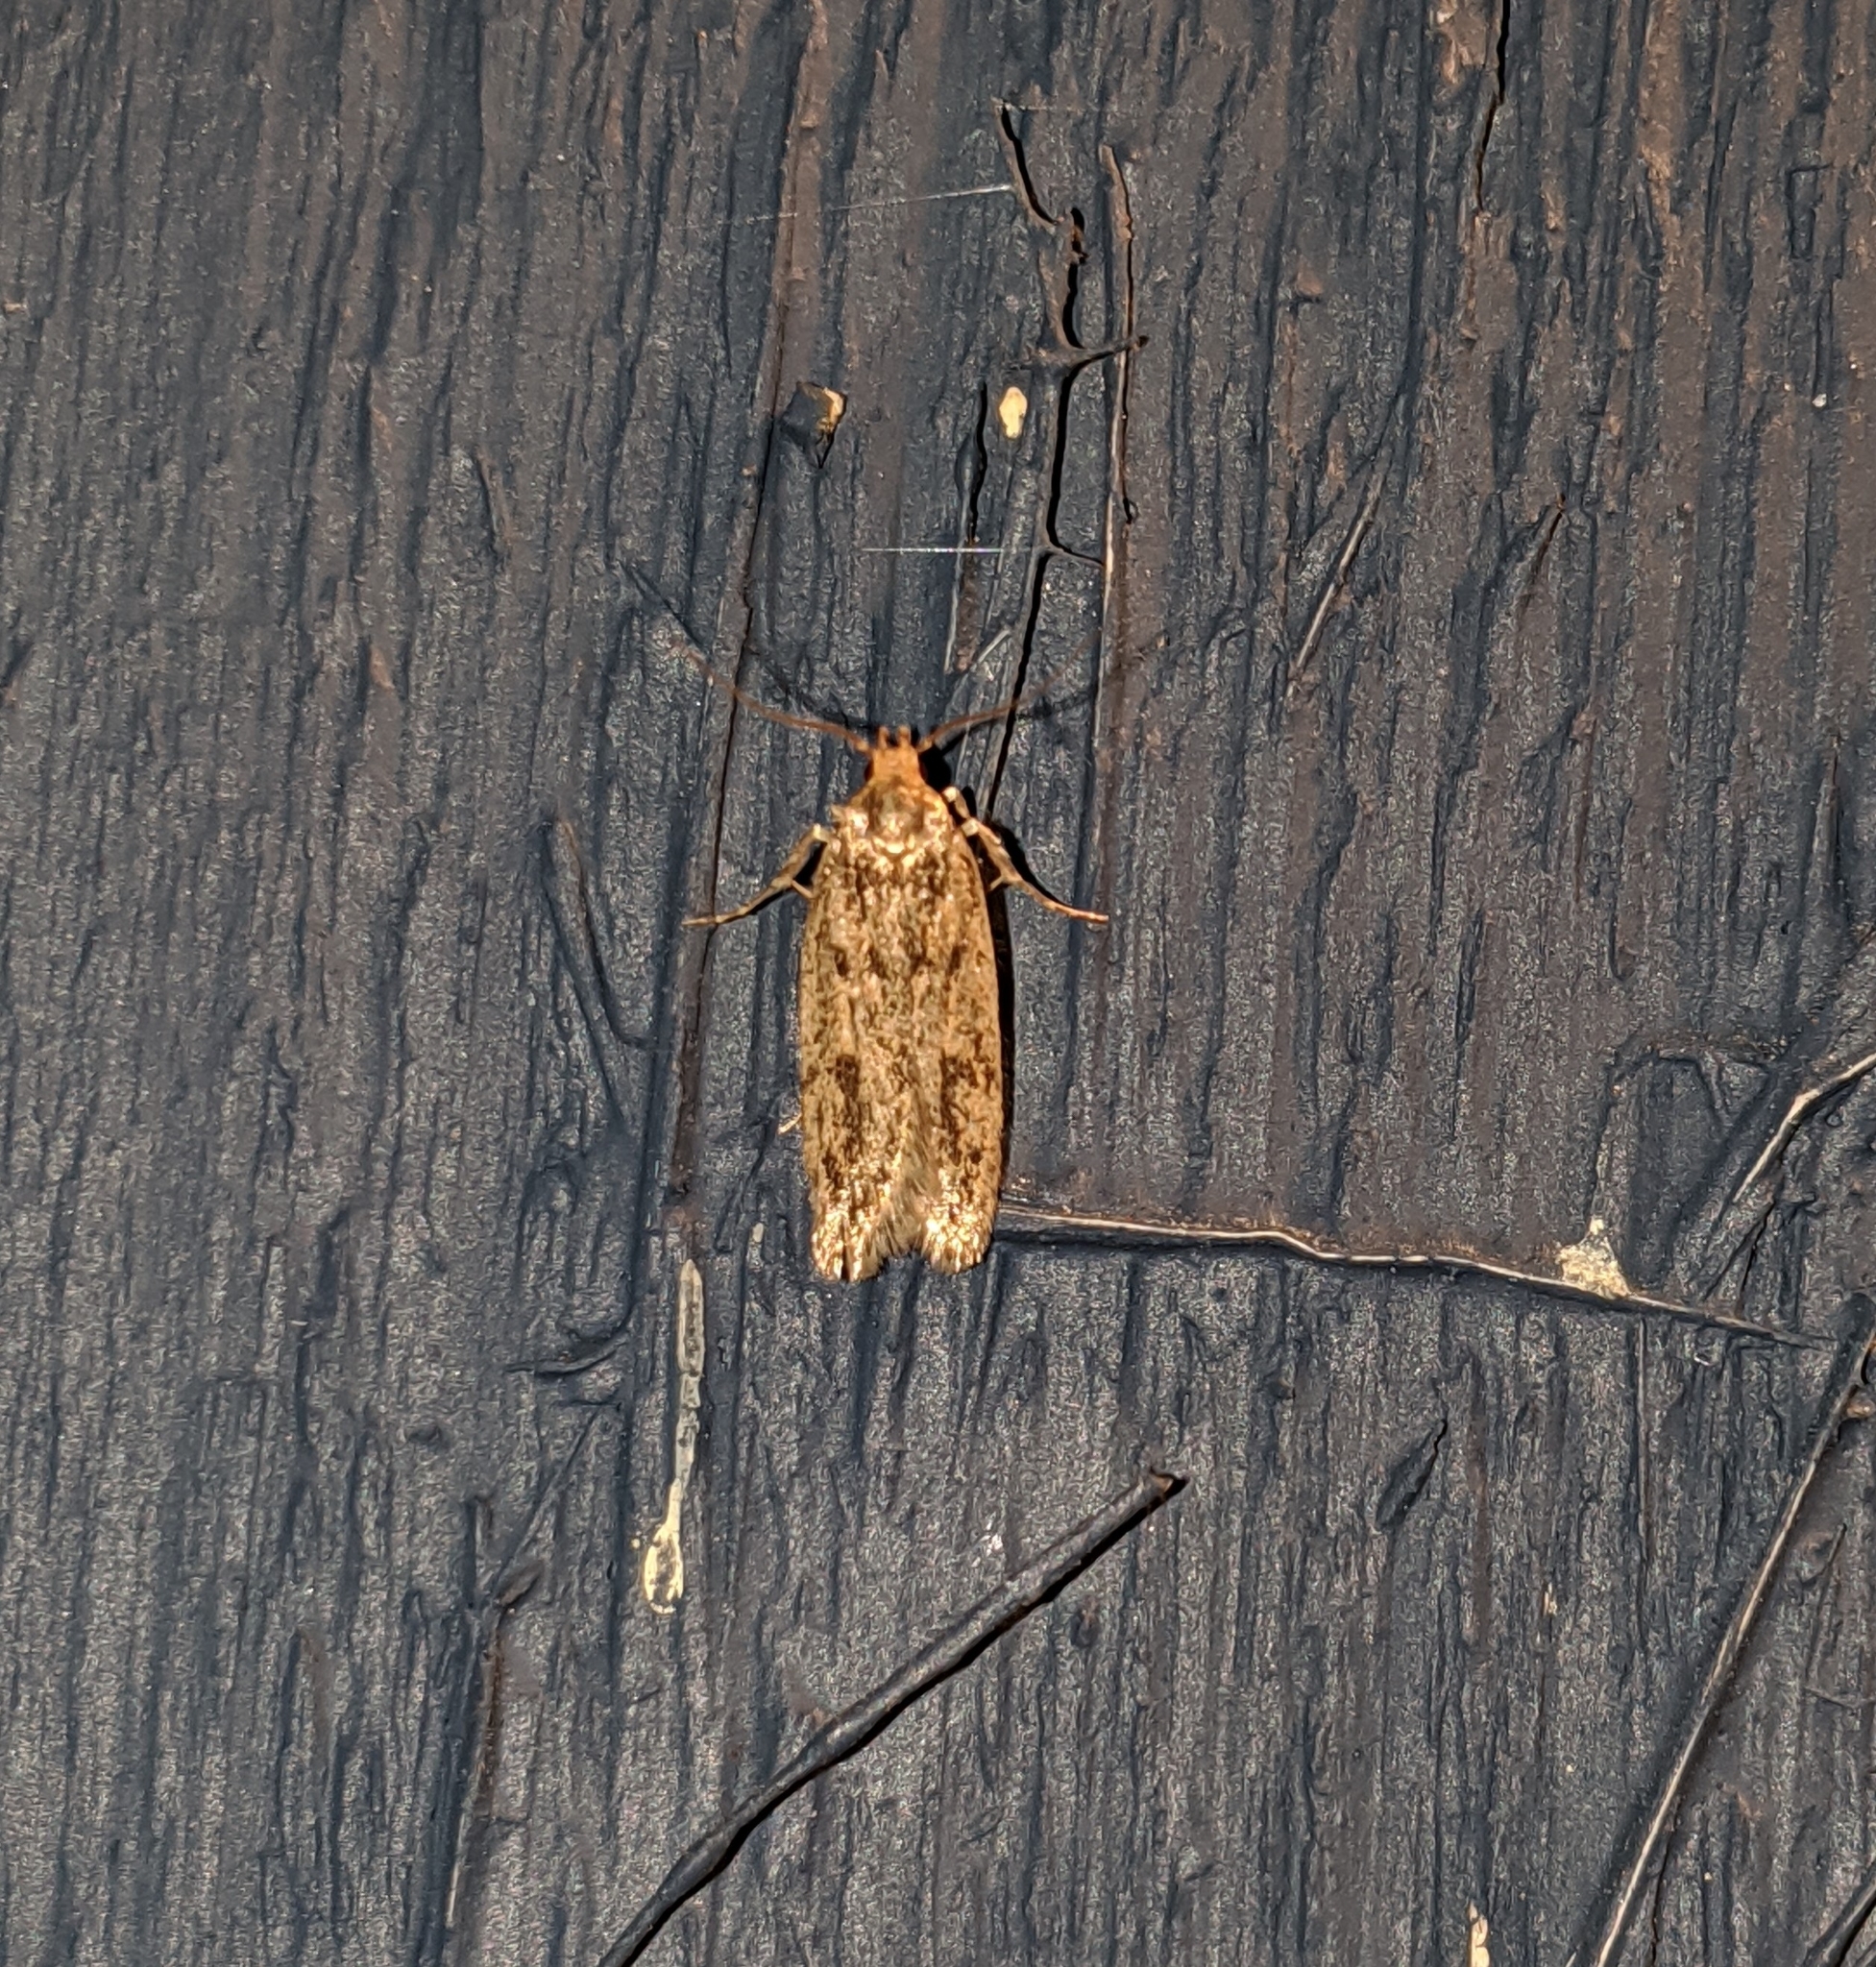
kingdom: Animalia
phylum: Arthropoda
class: Insecta
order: Lepidoptera
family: Oecophoridae
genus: Hofmannophila
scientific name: Hofmannophila pseudospretella
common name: Brown house moth
